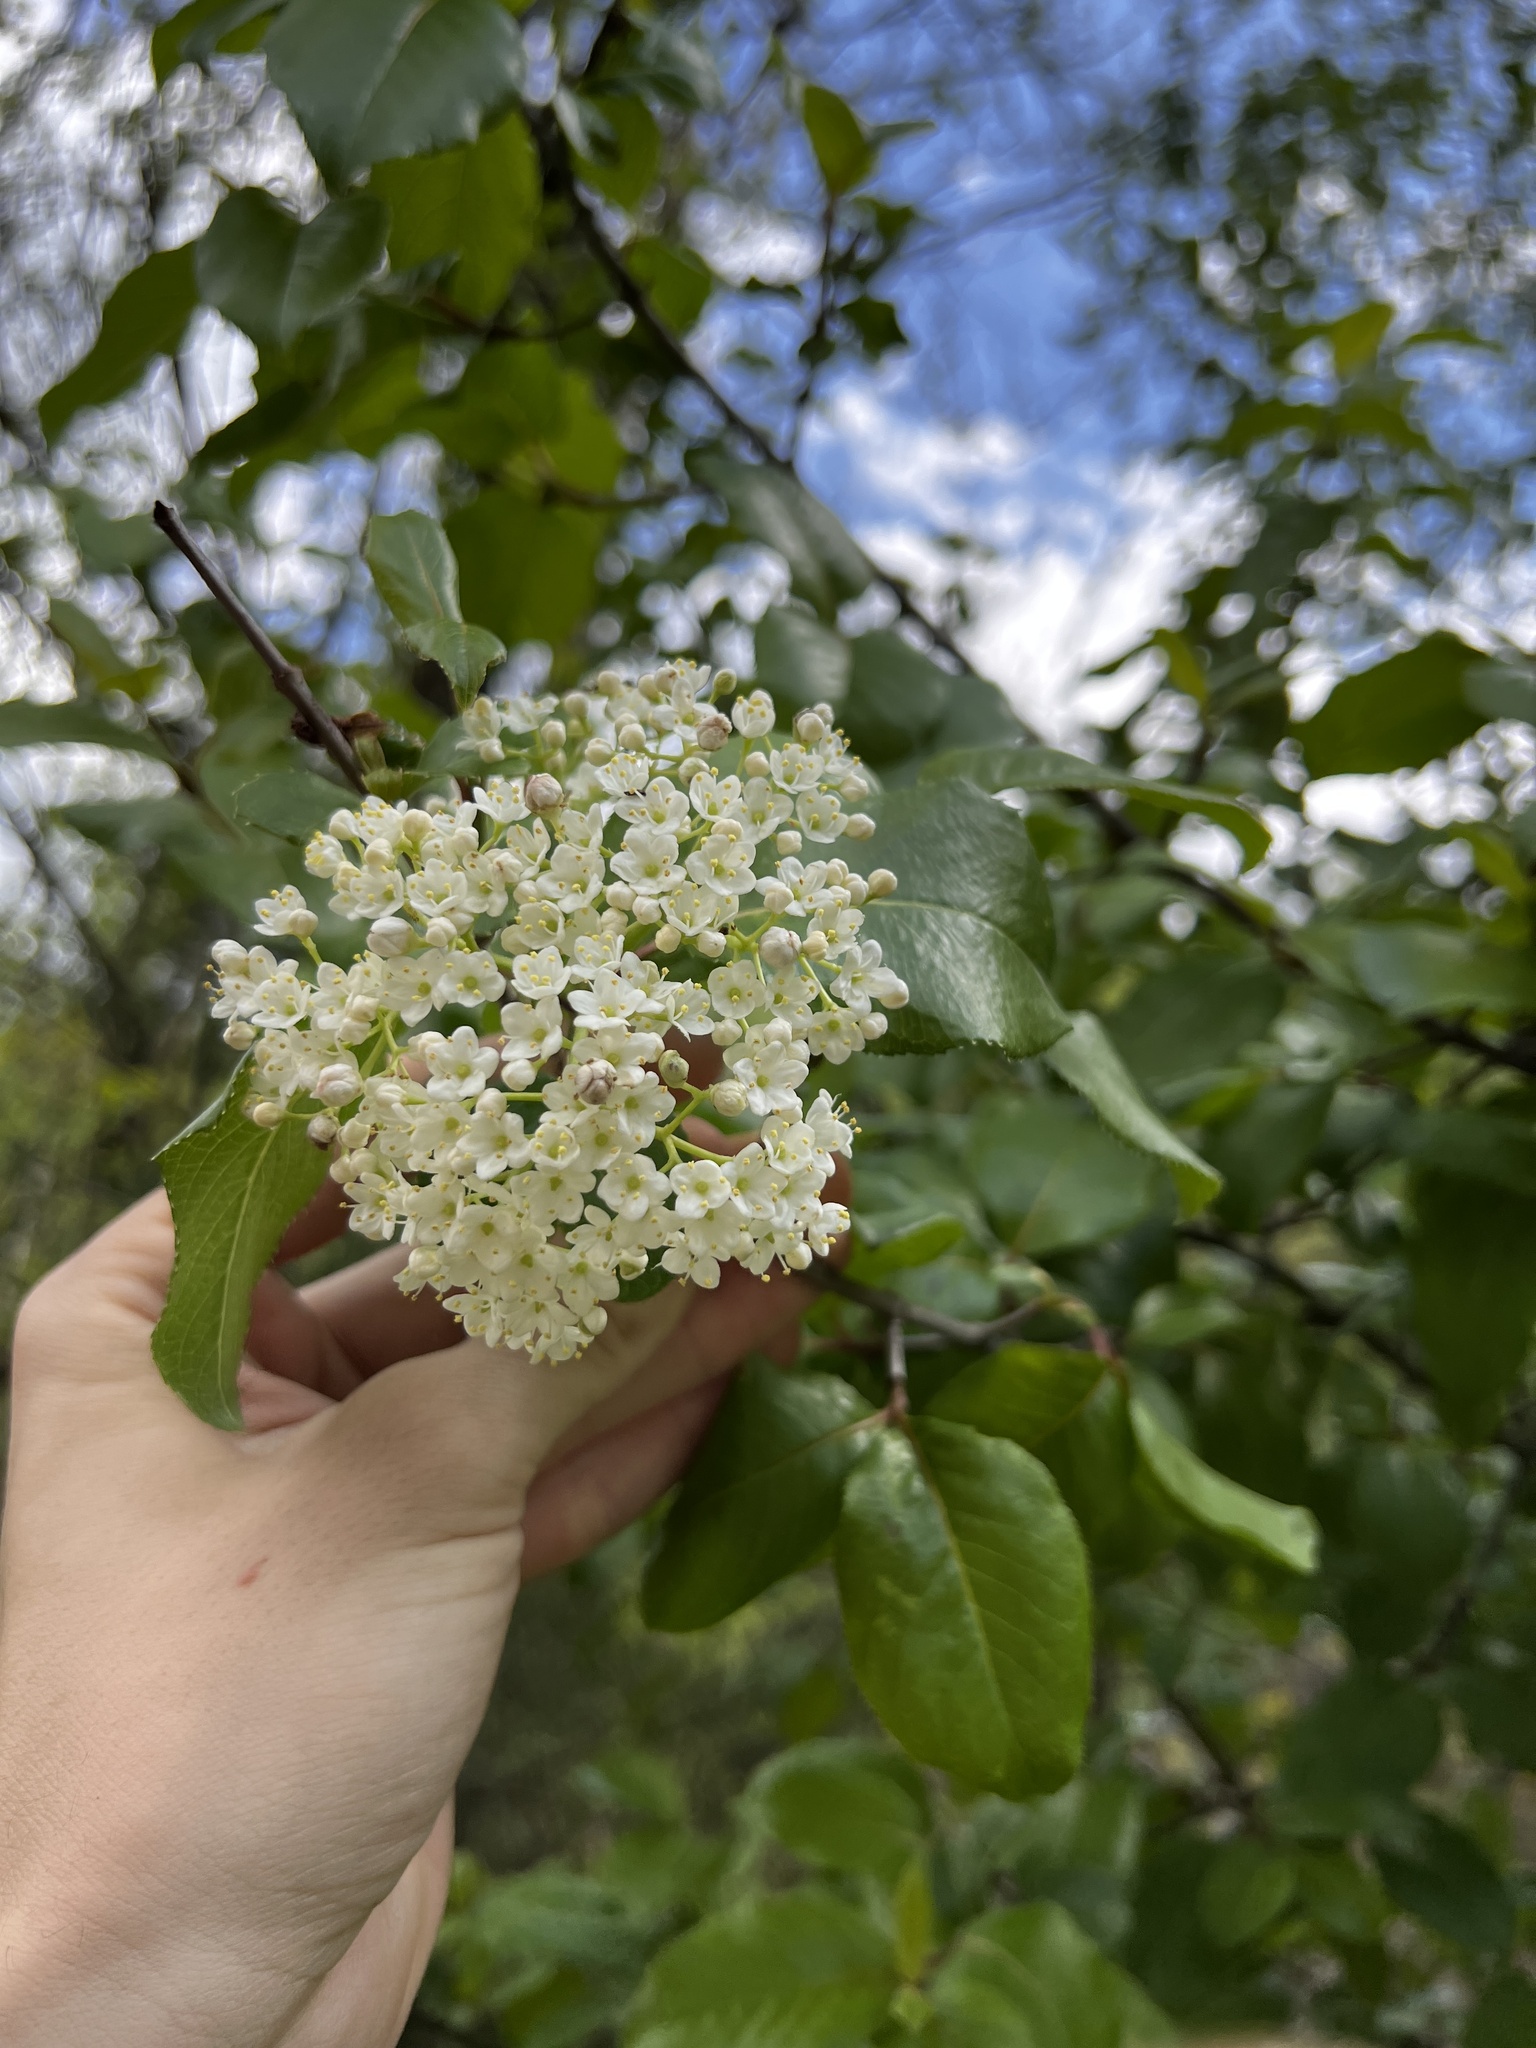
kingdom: Plantae
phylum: Tracheophyta
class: Magnoliopsida
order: Dipsacales
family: Viburnaceae
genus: Viburnum
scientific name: Viburnum rufidulum
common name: Blue haw
